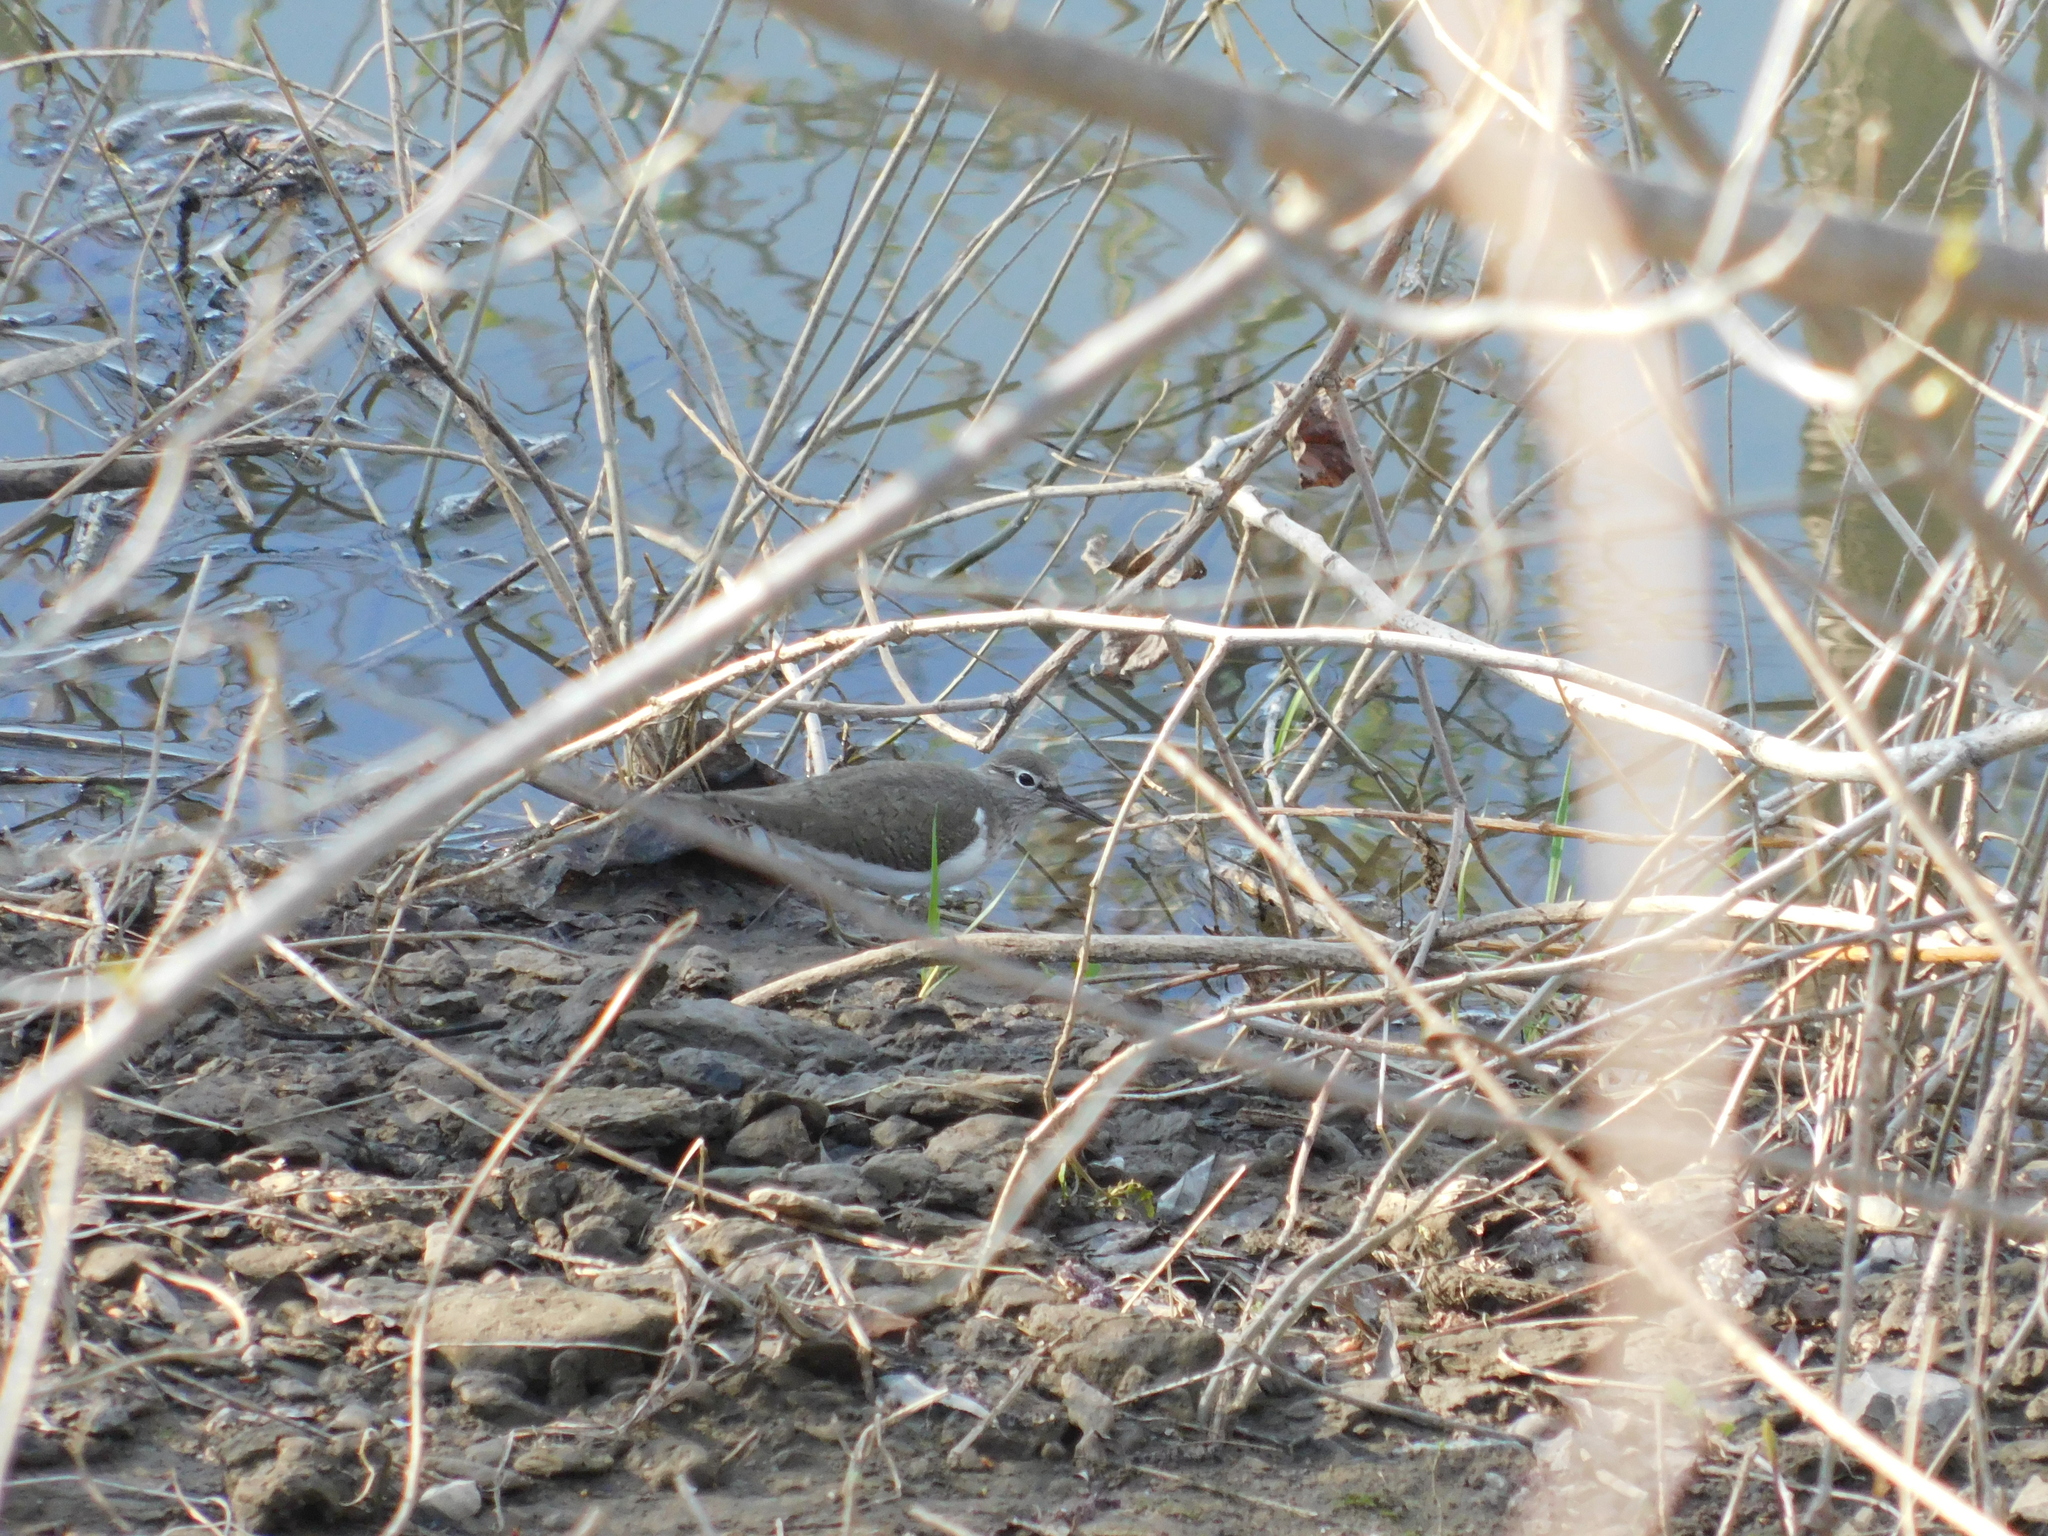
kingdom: Animalia
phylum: Chordata
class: Aves
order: Charadriiformes
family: Scolopacidae
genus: Actitis
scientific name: Actitis hypoleucos
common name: Common sandpiper
